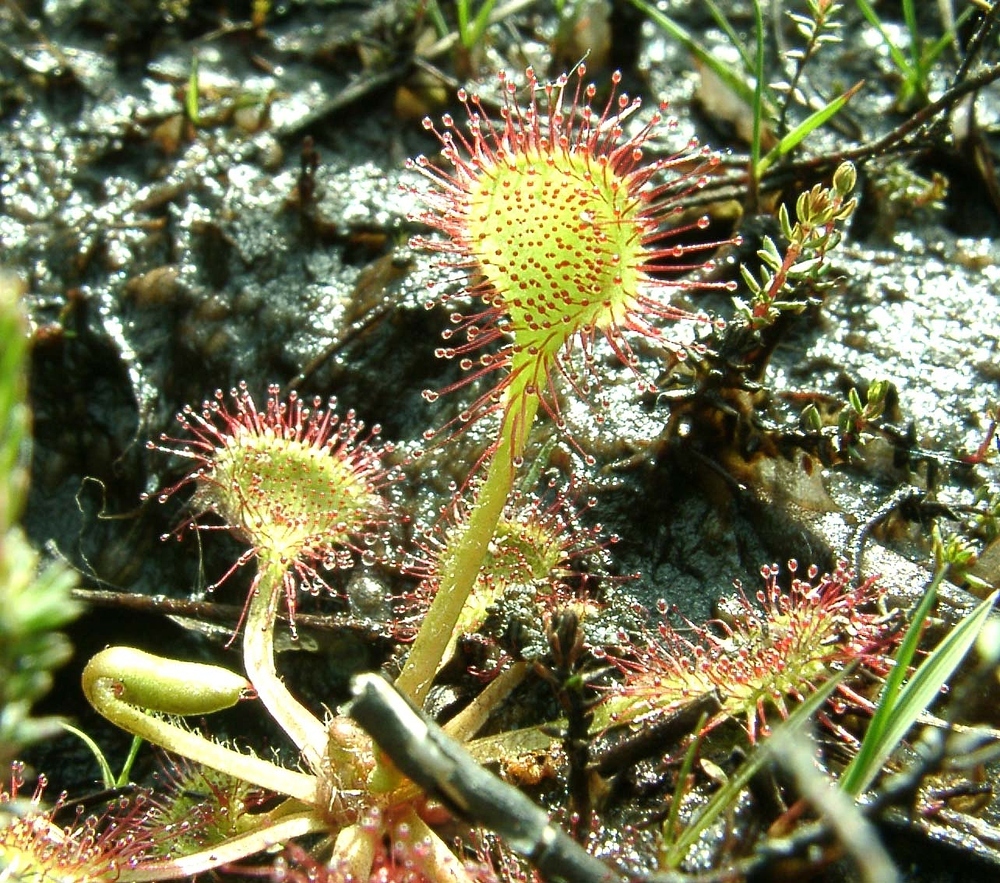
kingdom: Plantae
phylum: Tracheophyta
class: Magnoliopsida
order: Caryophyllales
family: Droseraceae
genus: Drosera
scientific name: Drosera rotundifolia
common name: Round-leaved sundew
